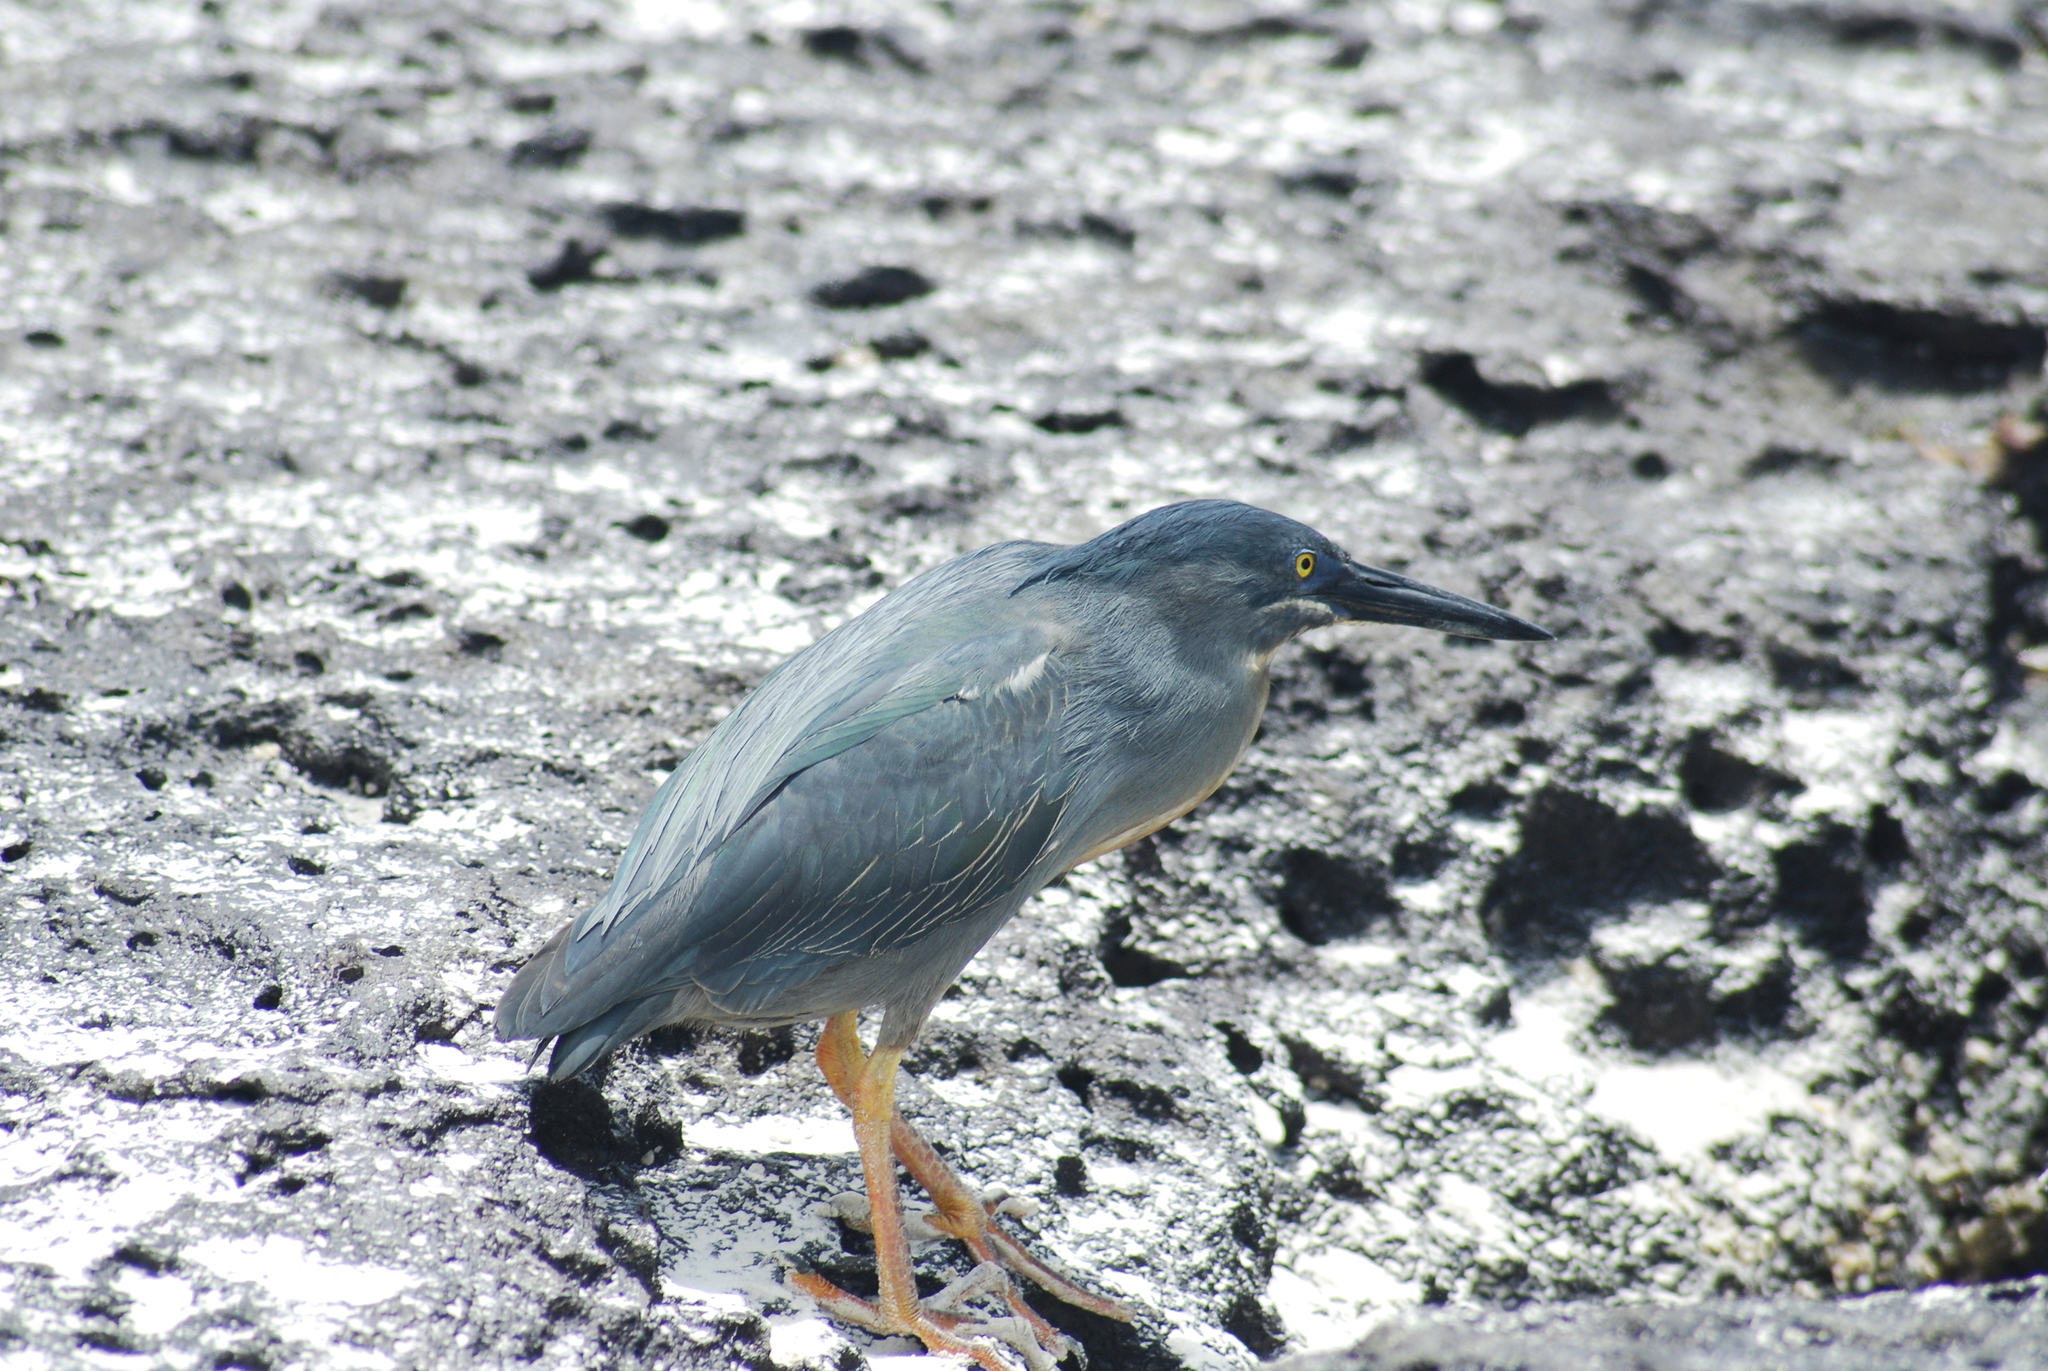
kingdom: Animalia
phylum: Chordata
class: Aves
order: Pelecaniformes
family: Ardeidae
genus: Butorides
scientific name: Butorides striata
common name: Striated heron
